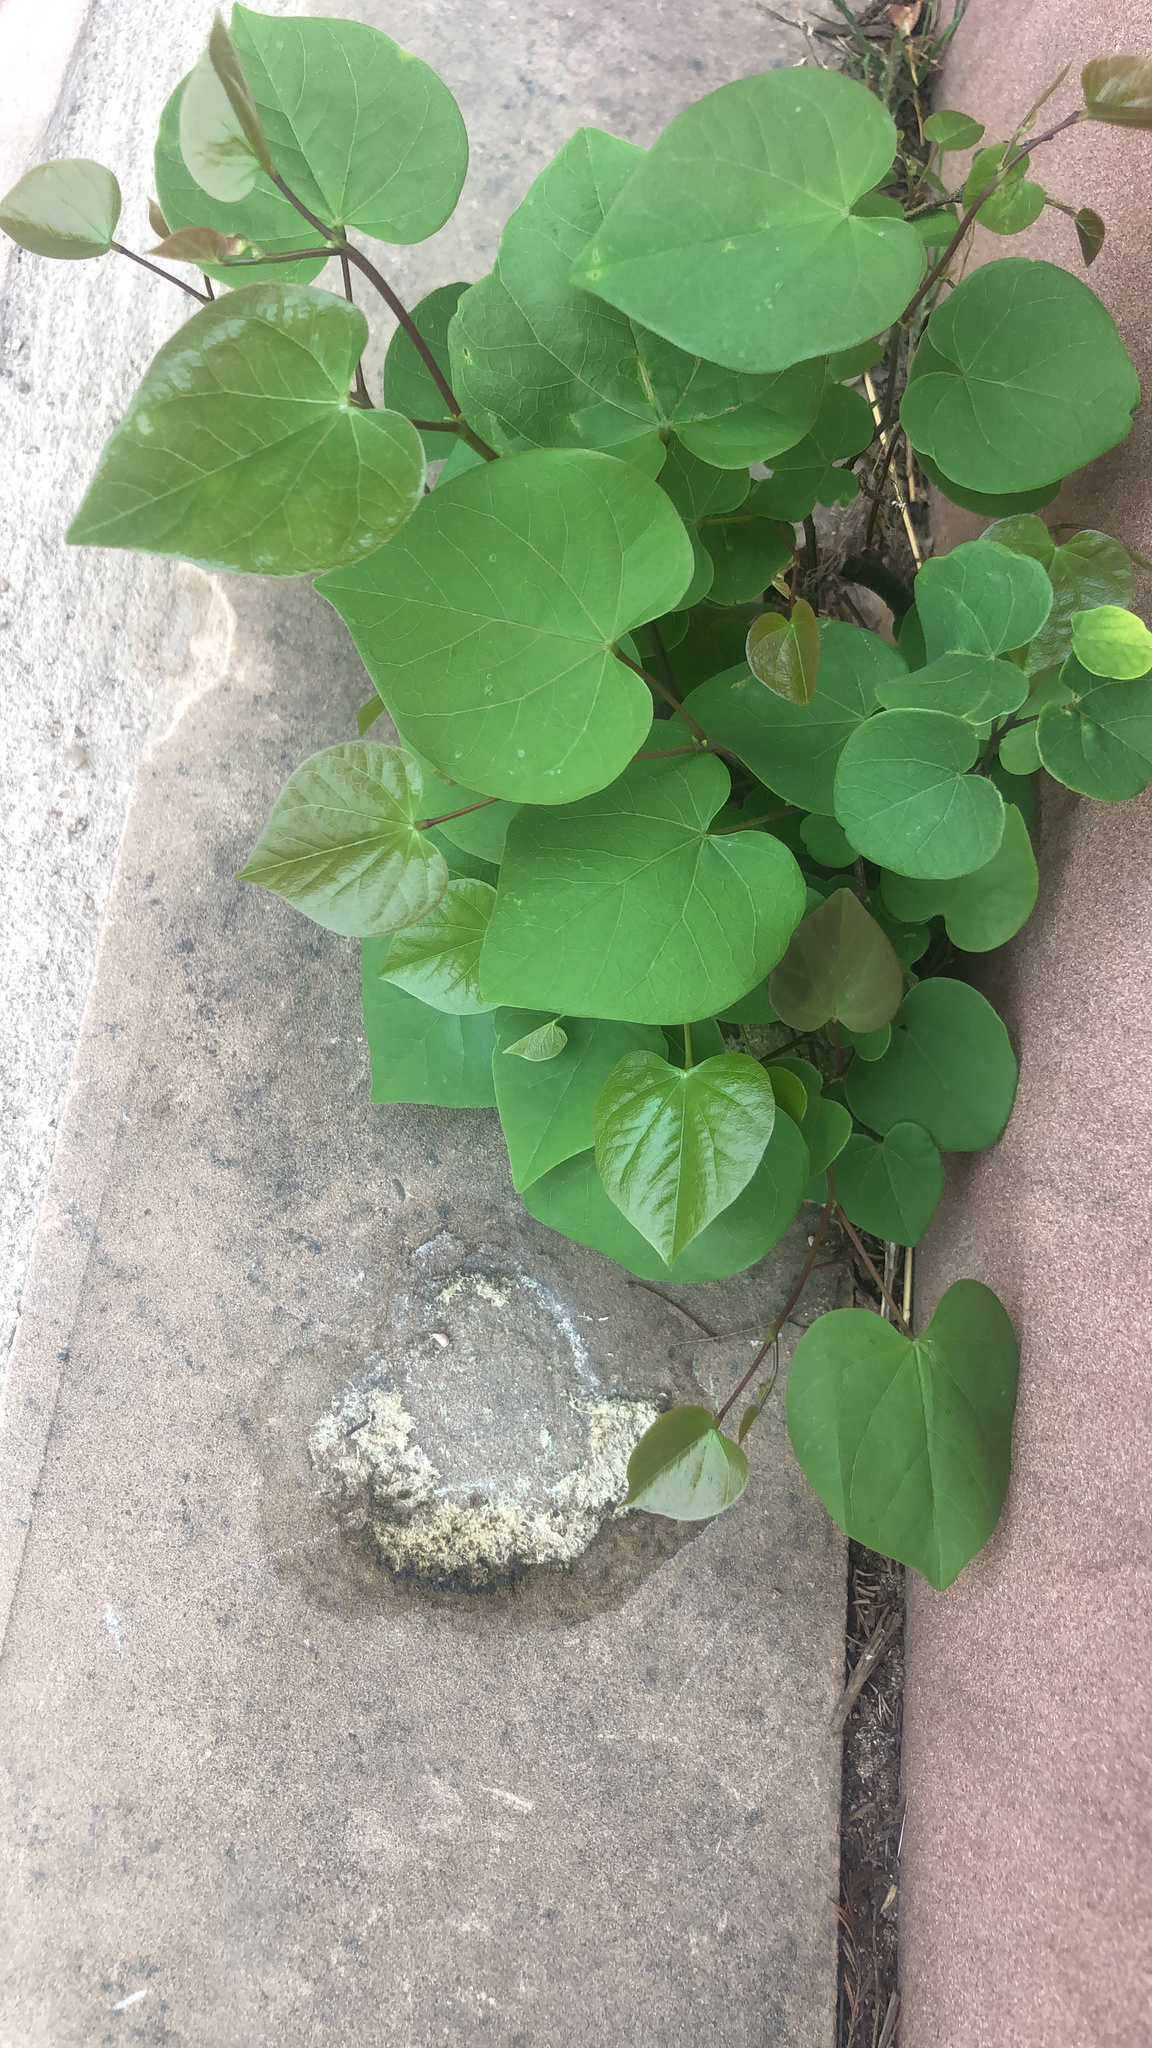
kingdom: Plantae
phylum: Tracheophyta
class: Magnoliopsida
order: Fabales
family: Fabaceae
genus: Cercis
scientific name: Cercis canadensis
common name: Eastern redbud
